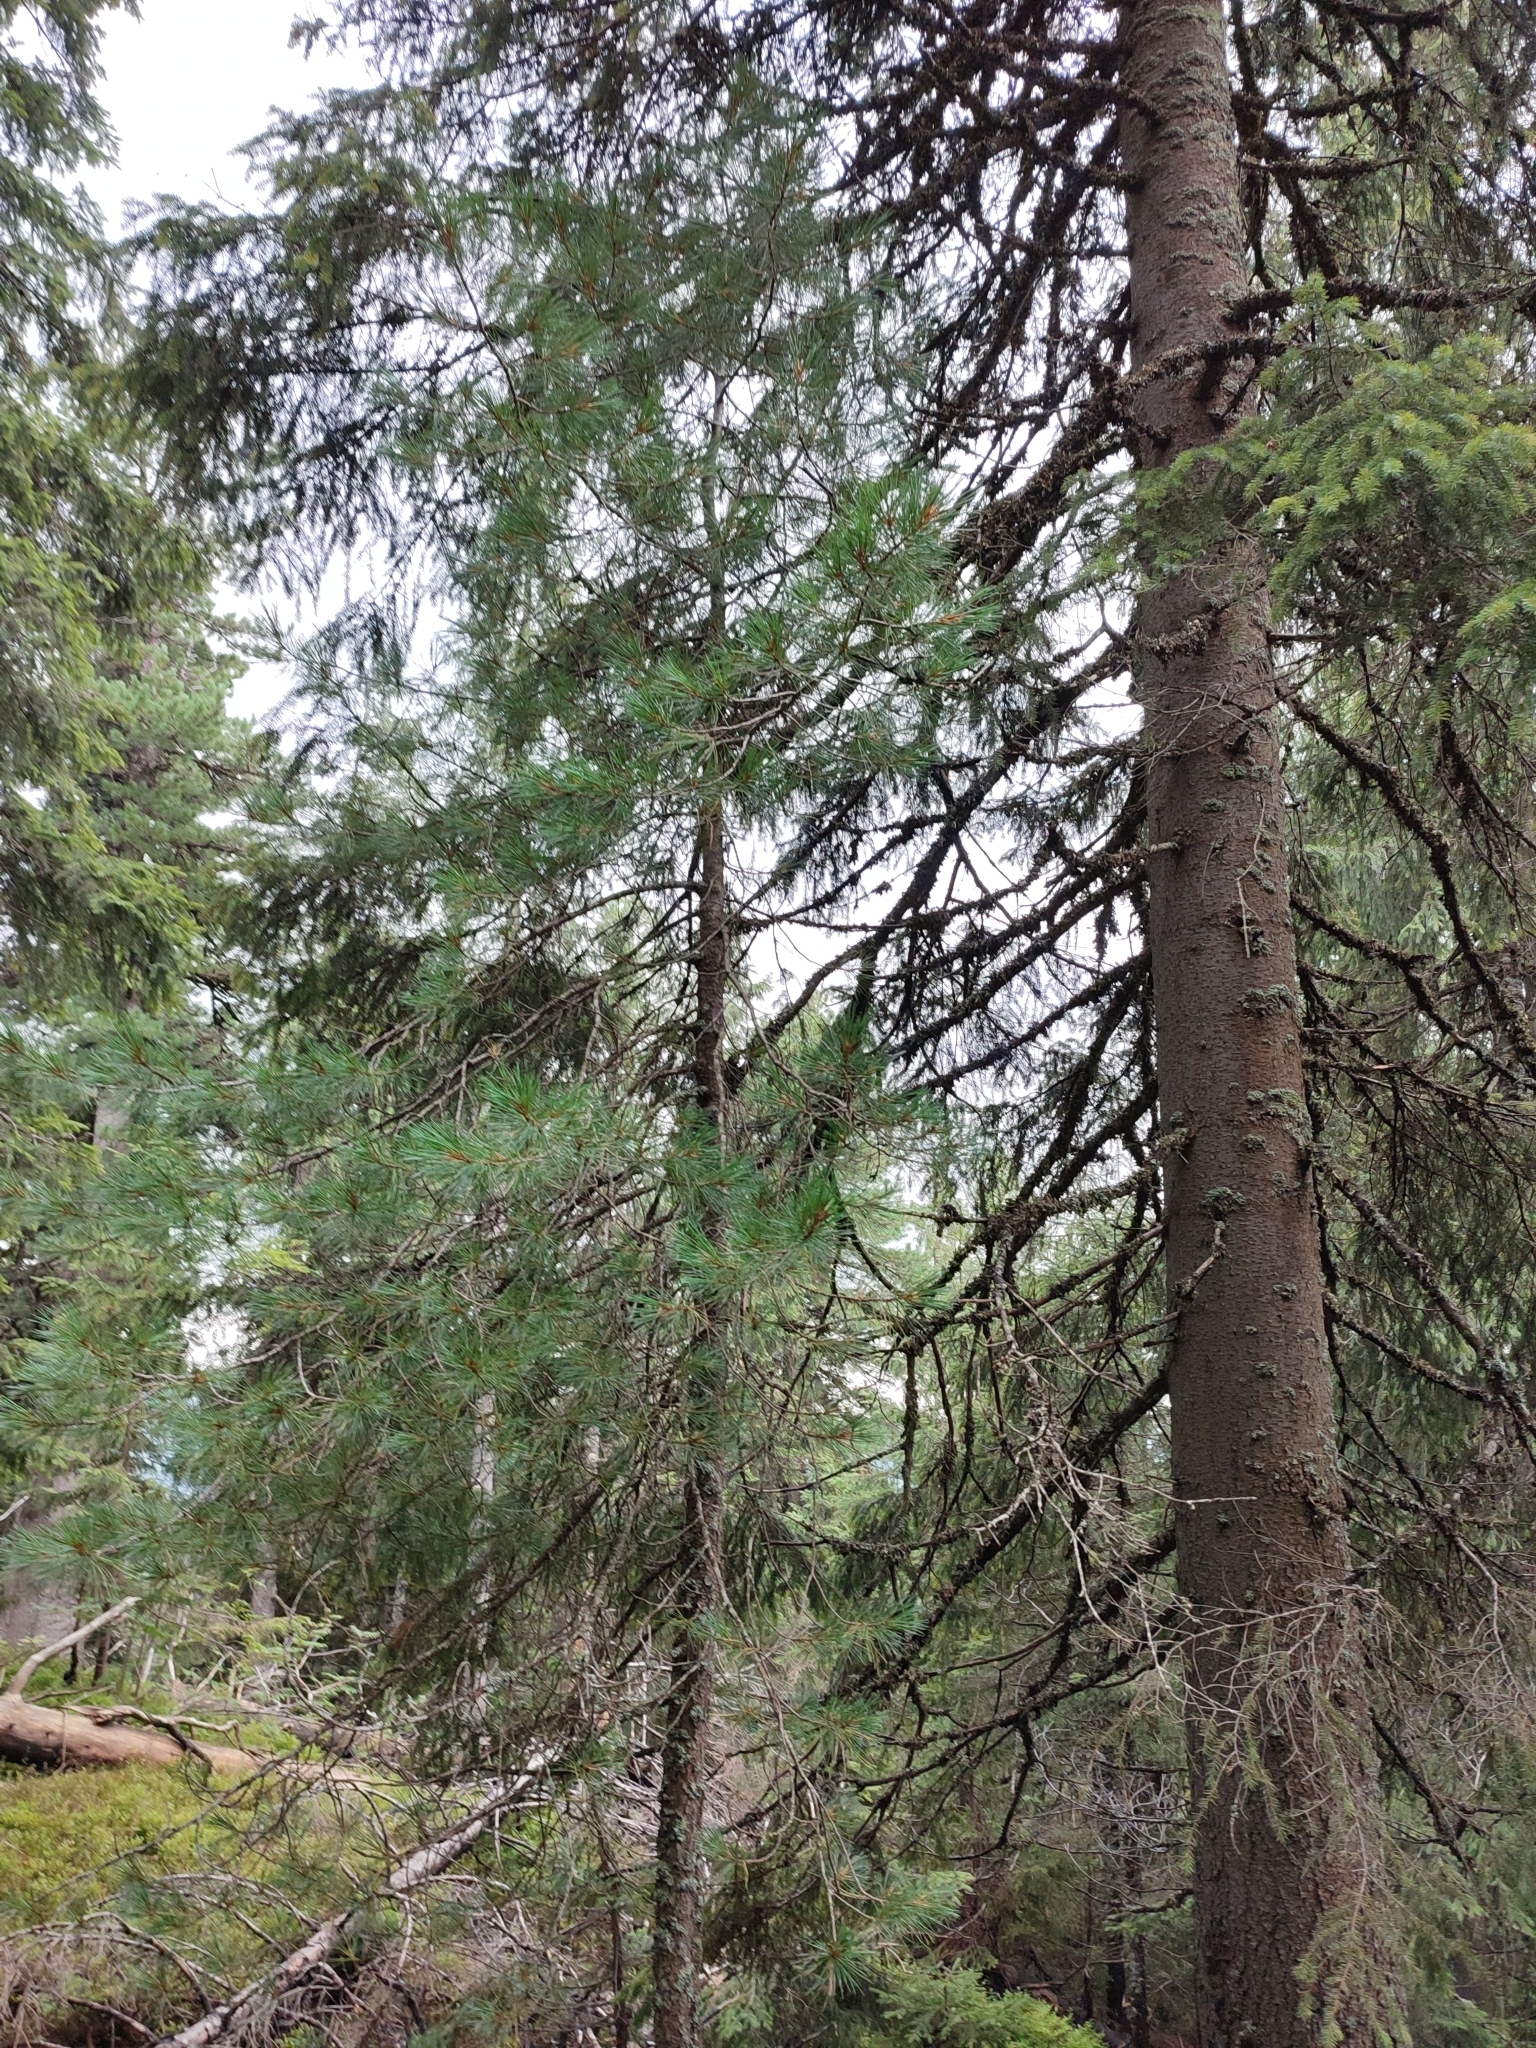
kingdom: Plantae
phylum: Tracheophyta
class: Pinopsida
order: Pinales
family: Pinaceae
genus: Pinus
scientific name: Pinus cembra
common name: Arolla pine
